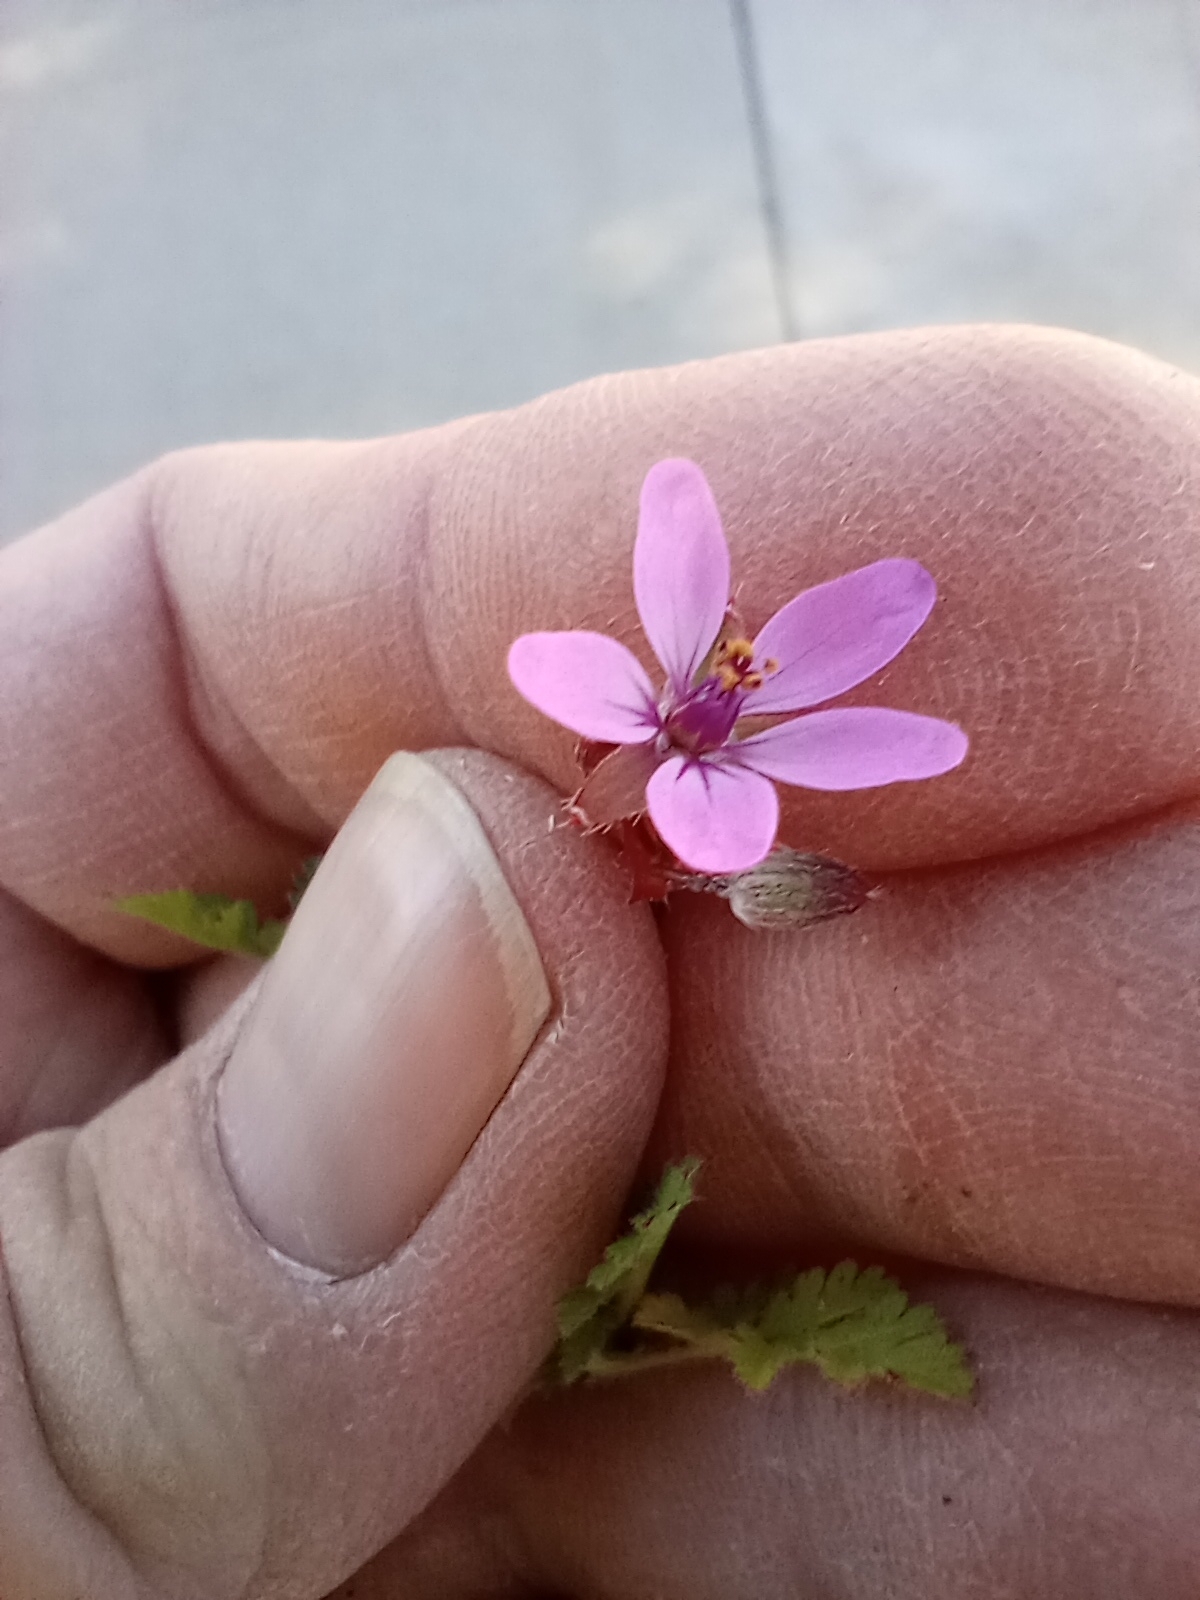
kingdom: Plantae
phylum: Tracheophyta
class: Magnoliopsida
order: Geraniales
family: Geraniaceae
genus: Erodium
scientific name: Erodium cicutarium
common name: Common stork's-bill
